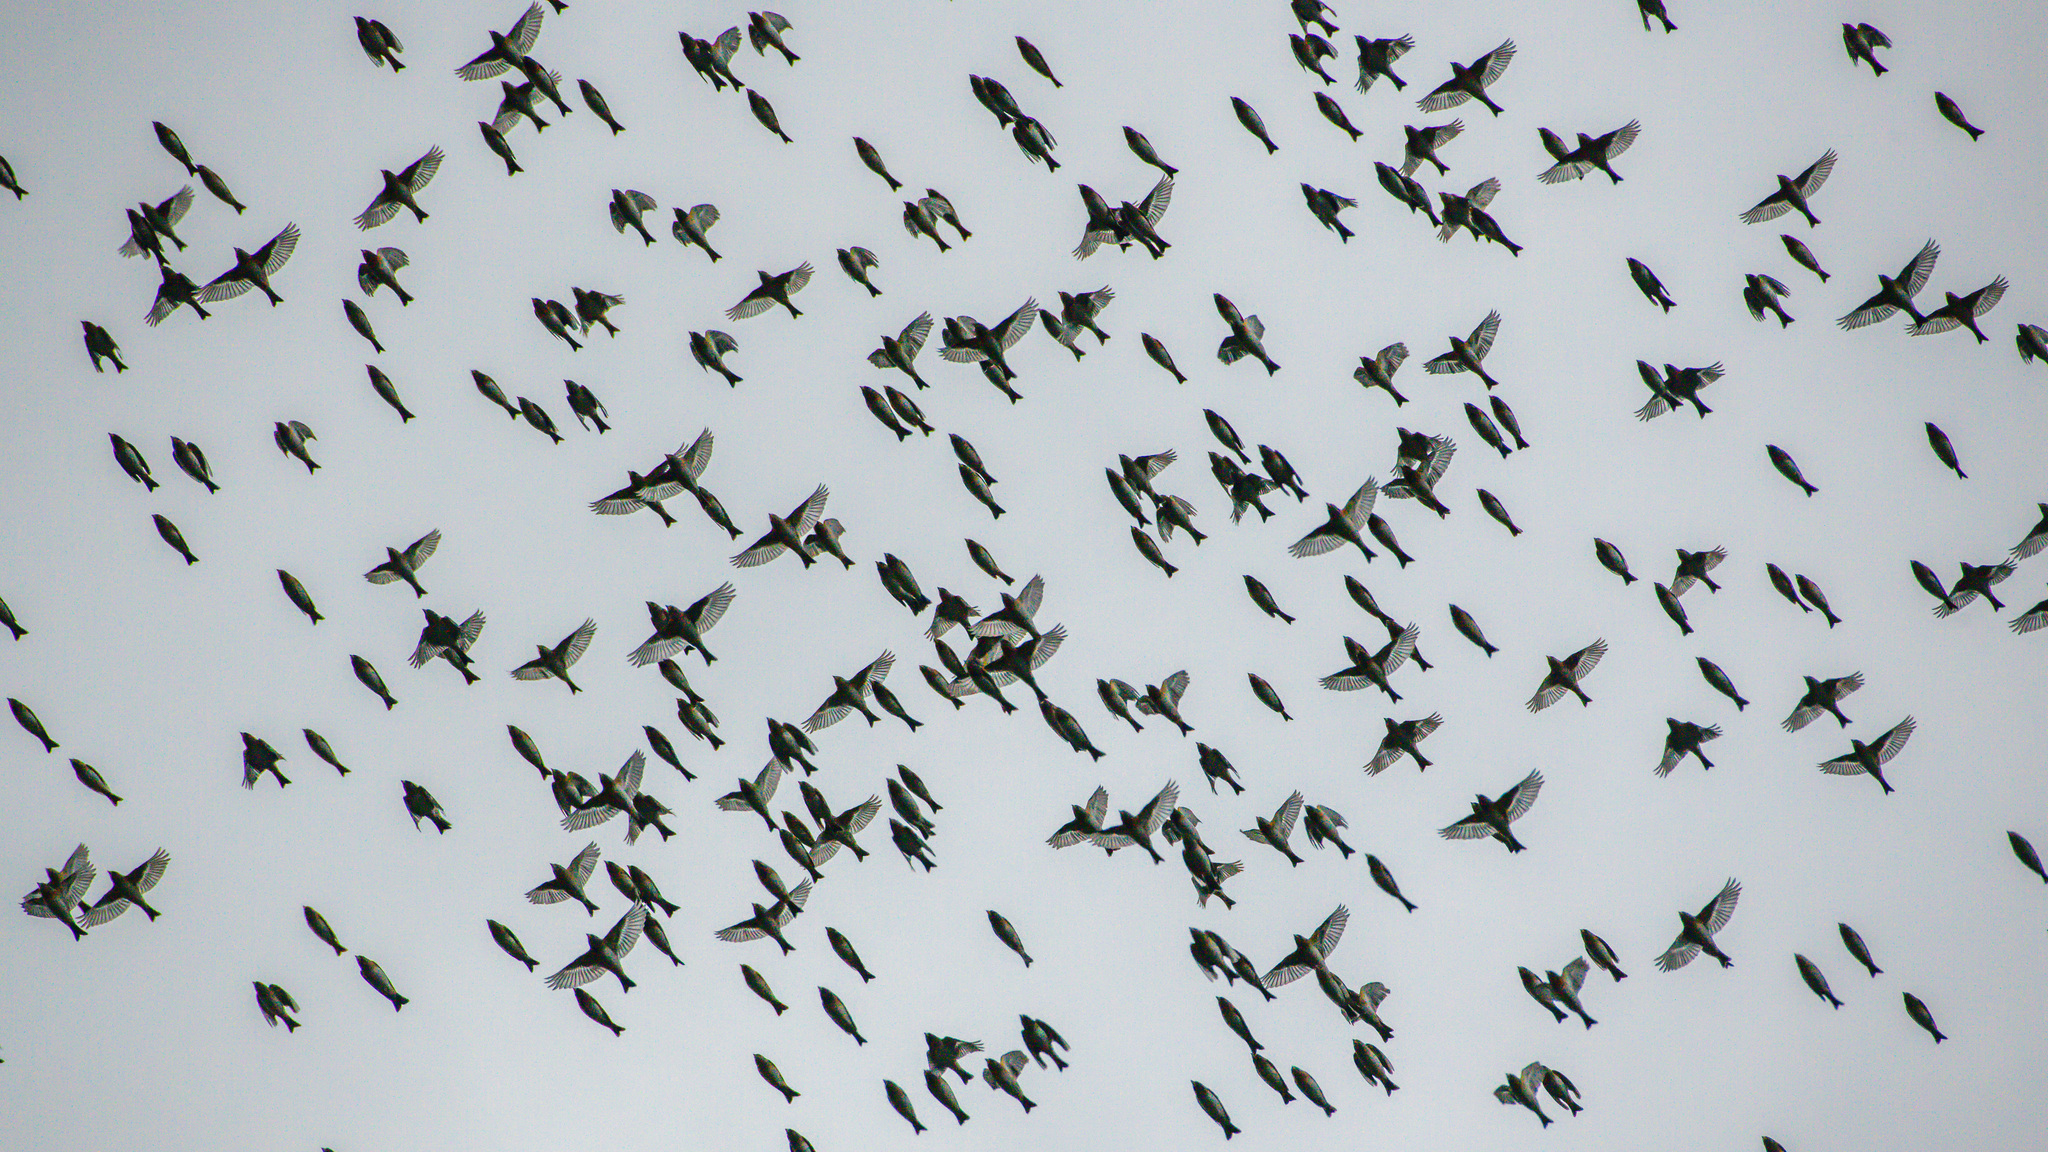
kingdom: Animalia
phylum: Chordata
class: Aves
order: Passeriformes
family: Fringillidae
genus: Fringilla
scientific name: Fringilla montifringilla
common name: Brambling
